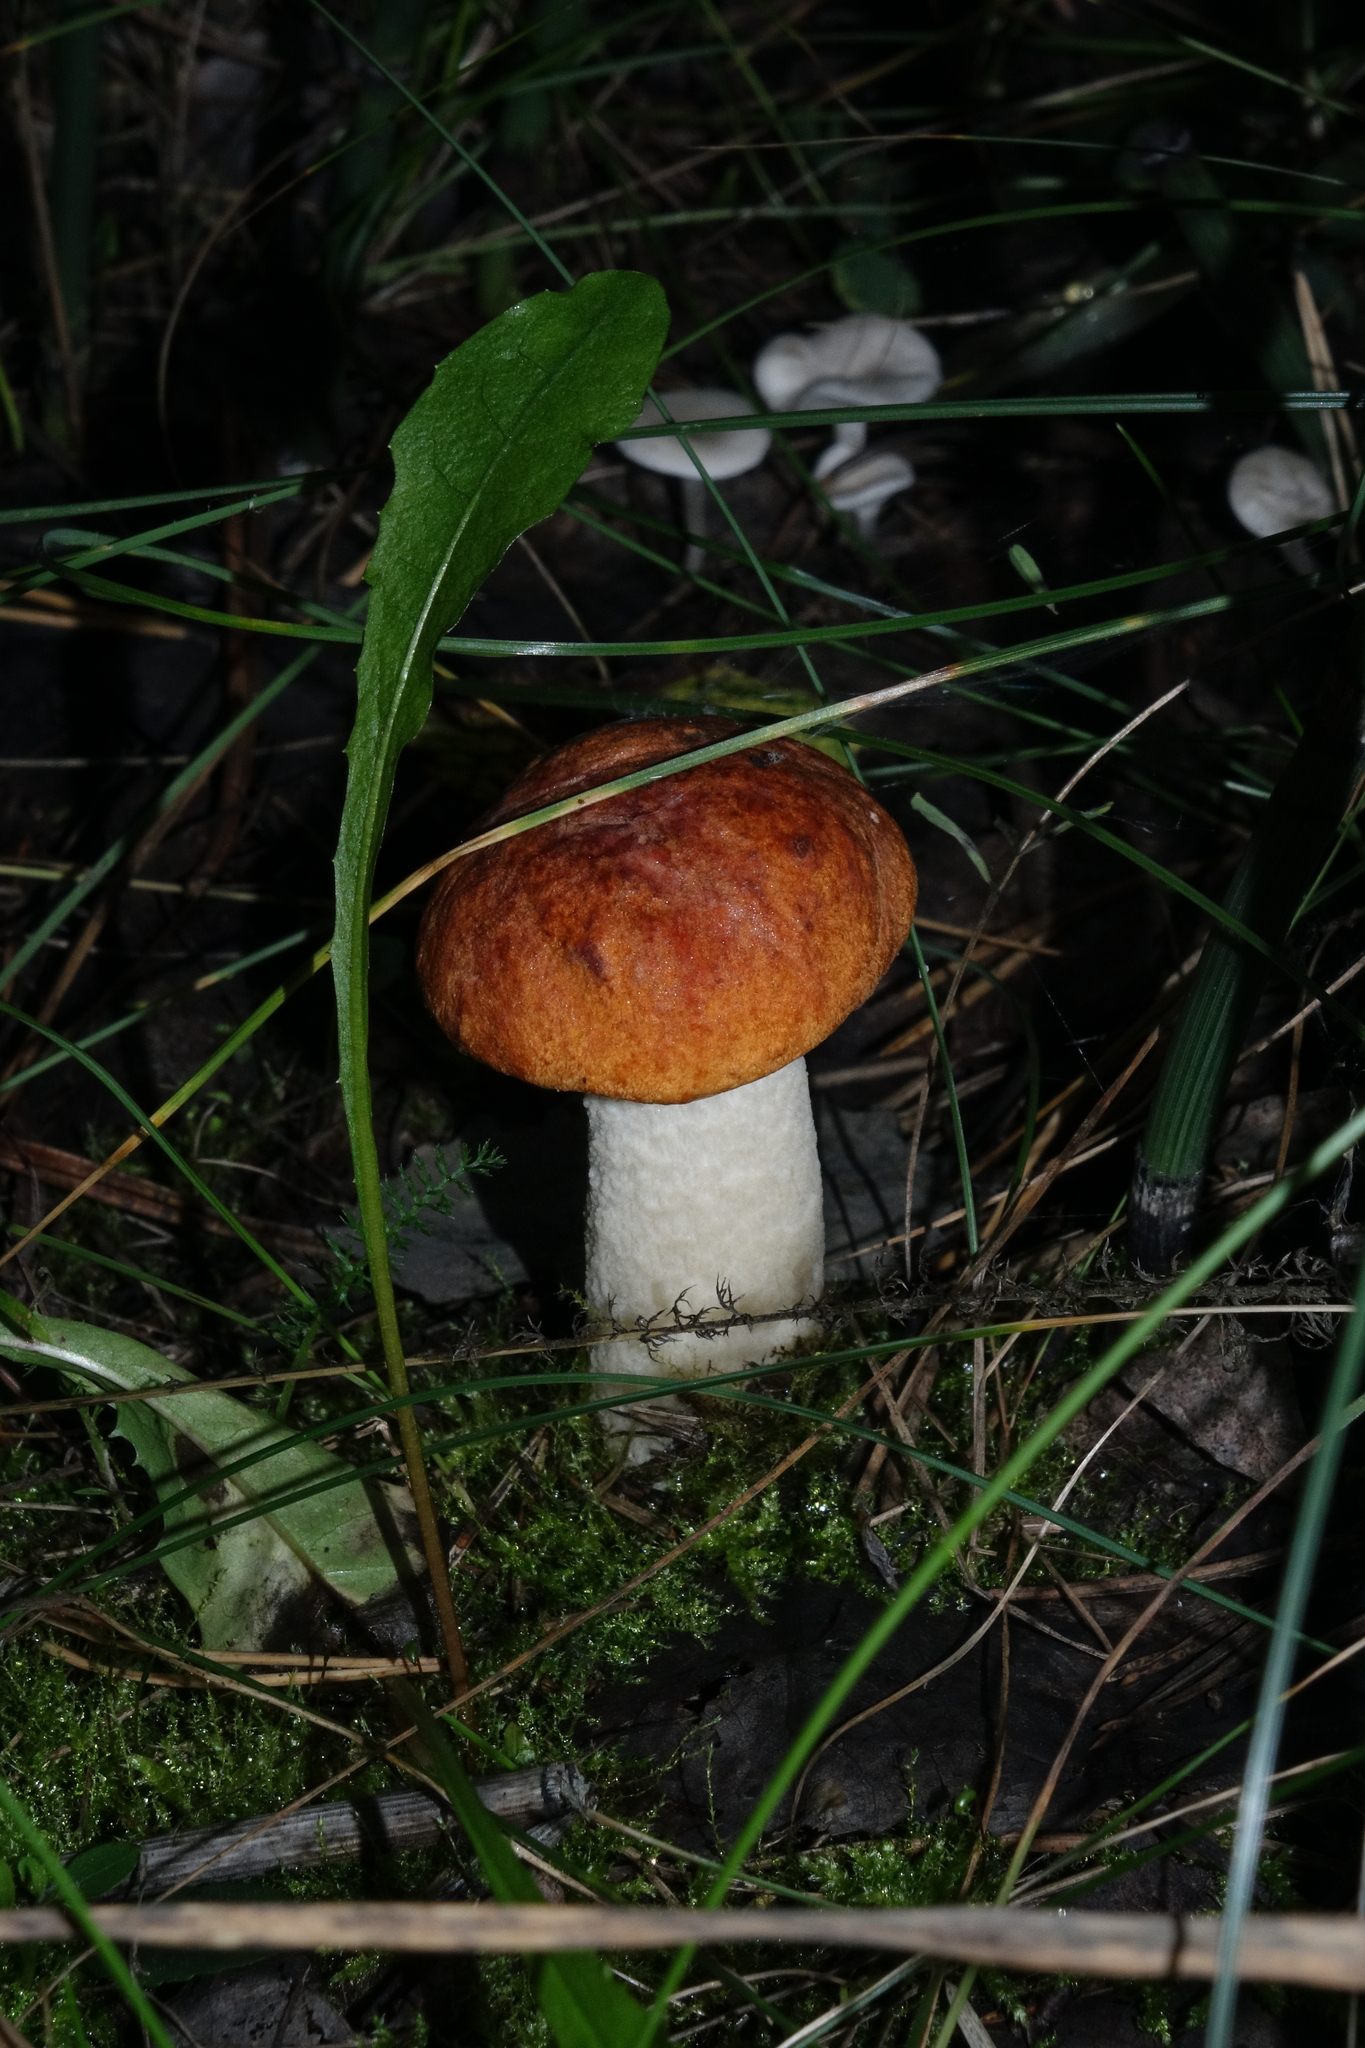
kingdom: Fungi
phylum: Basidiomycota
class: Agaricomycetes
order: Boletales
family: Boletaceae
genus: Leccinum
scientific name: Leccinum albostipitatum
